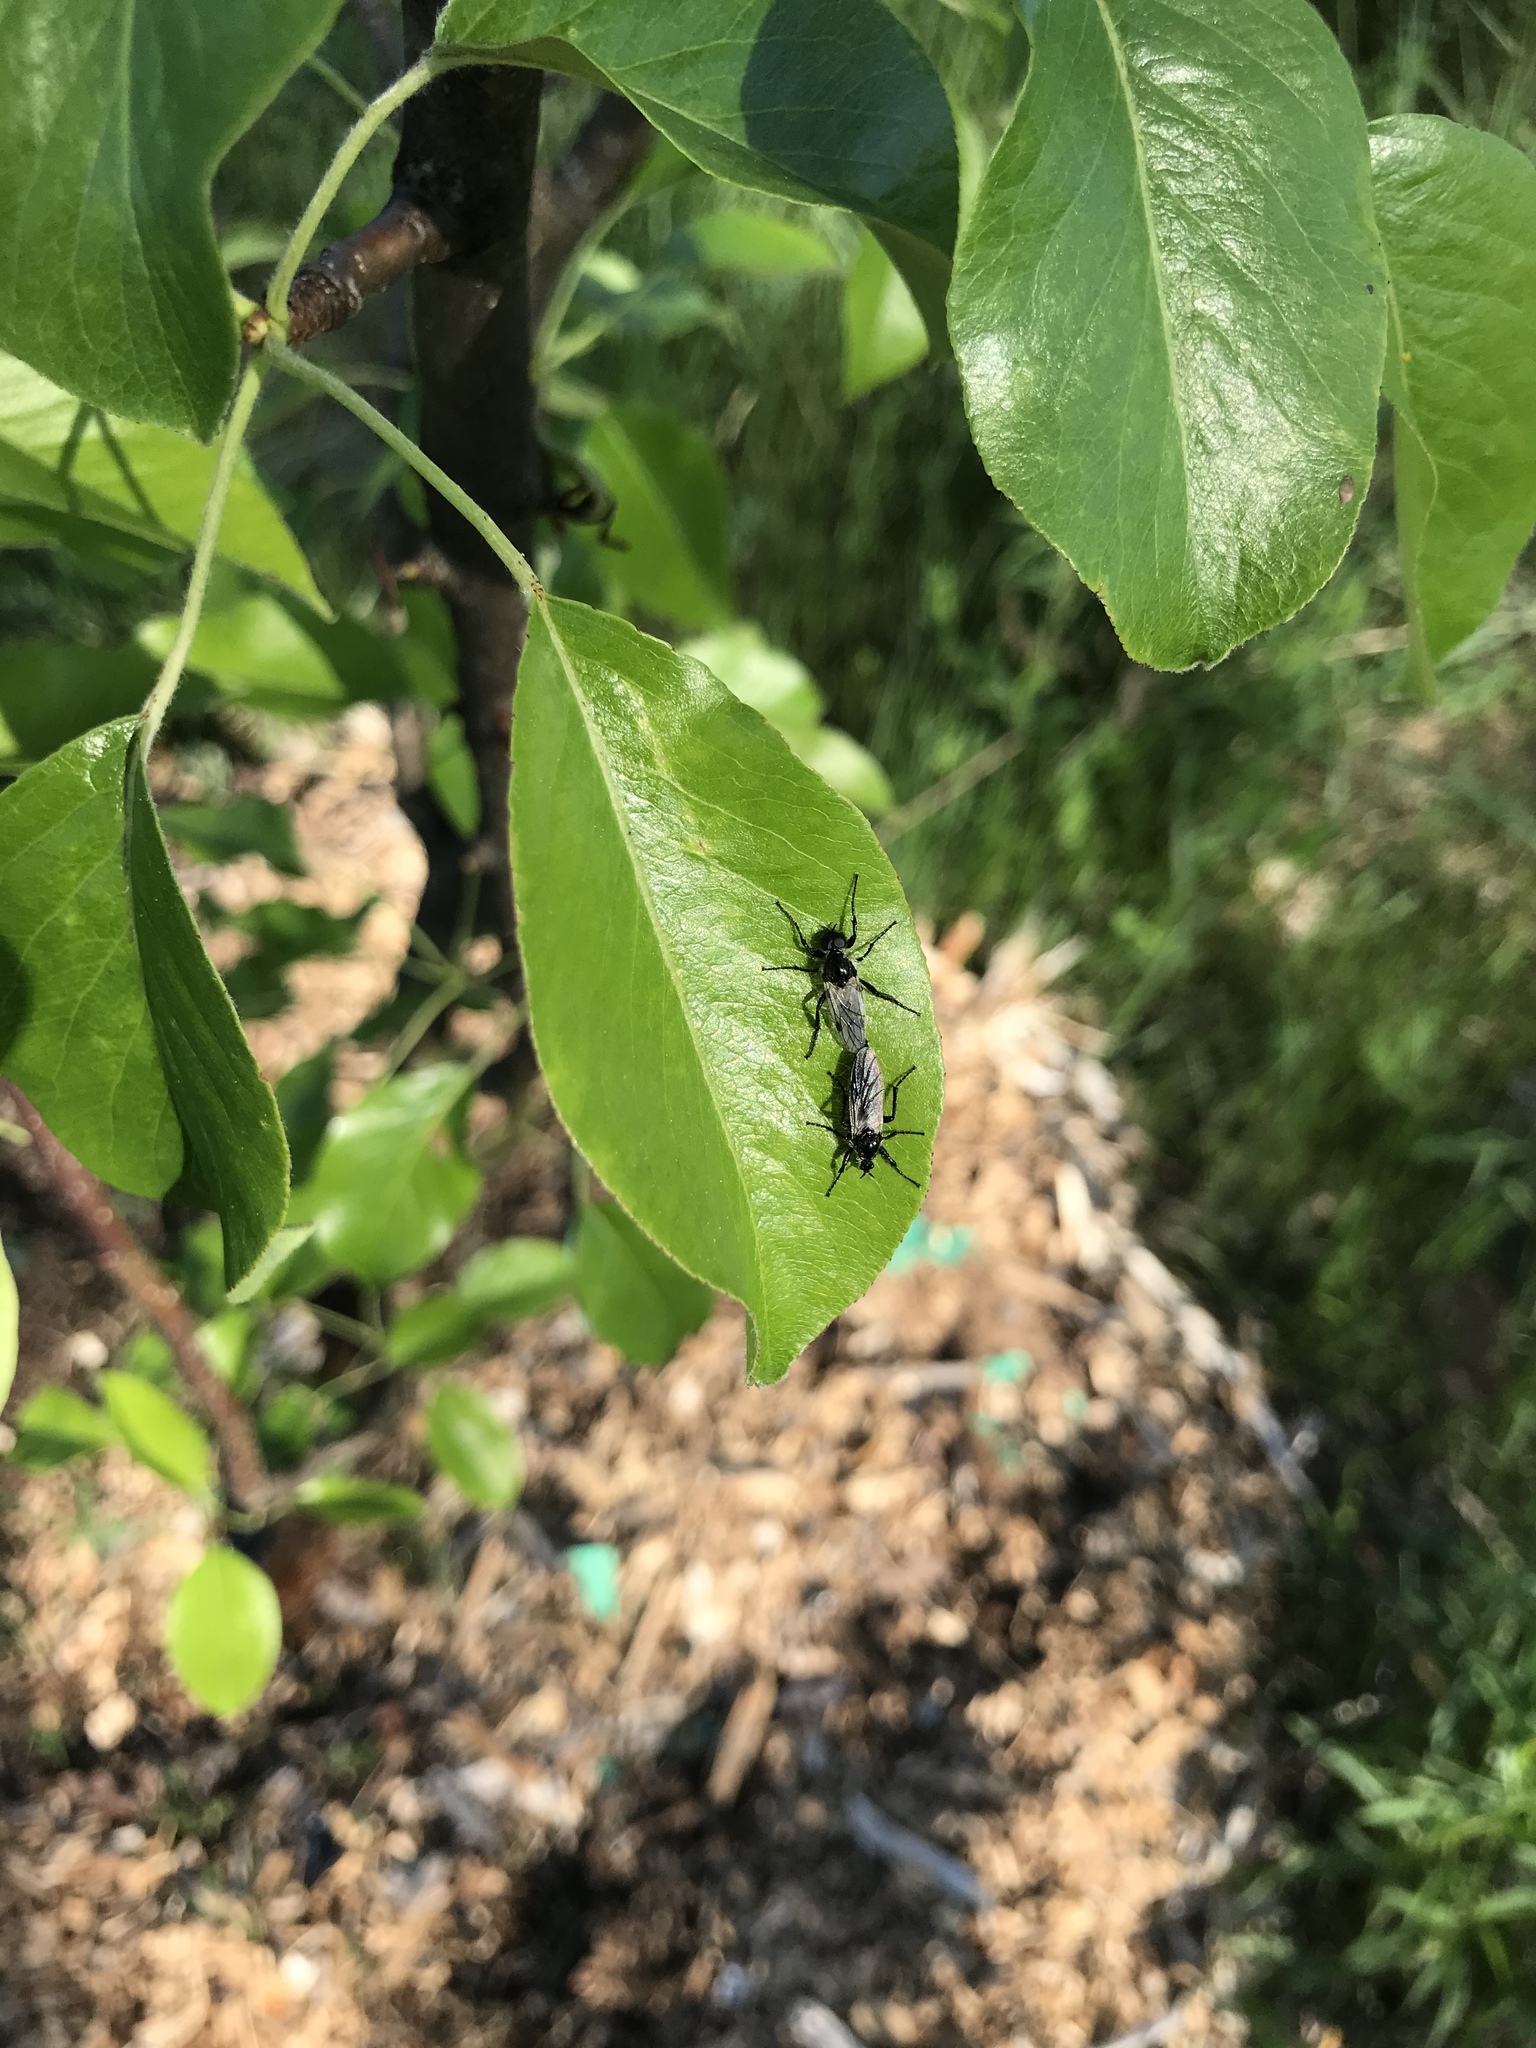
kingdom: Animalia
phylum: Arthropoda
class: Insecta
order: Diptera
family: Bibionidae
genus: Bibio
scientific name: Bibio albipennis
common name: White-winged march fly
